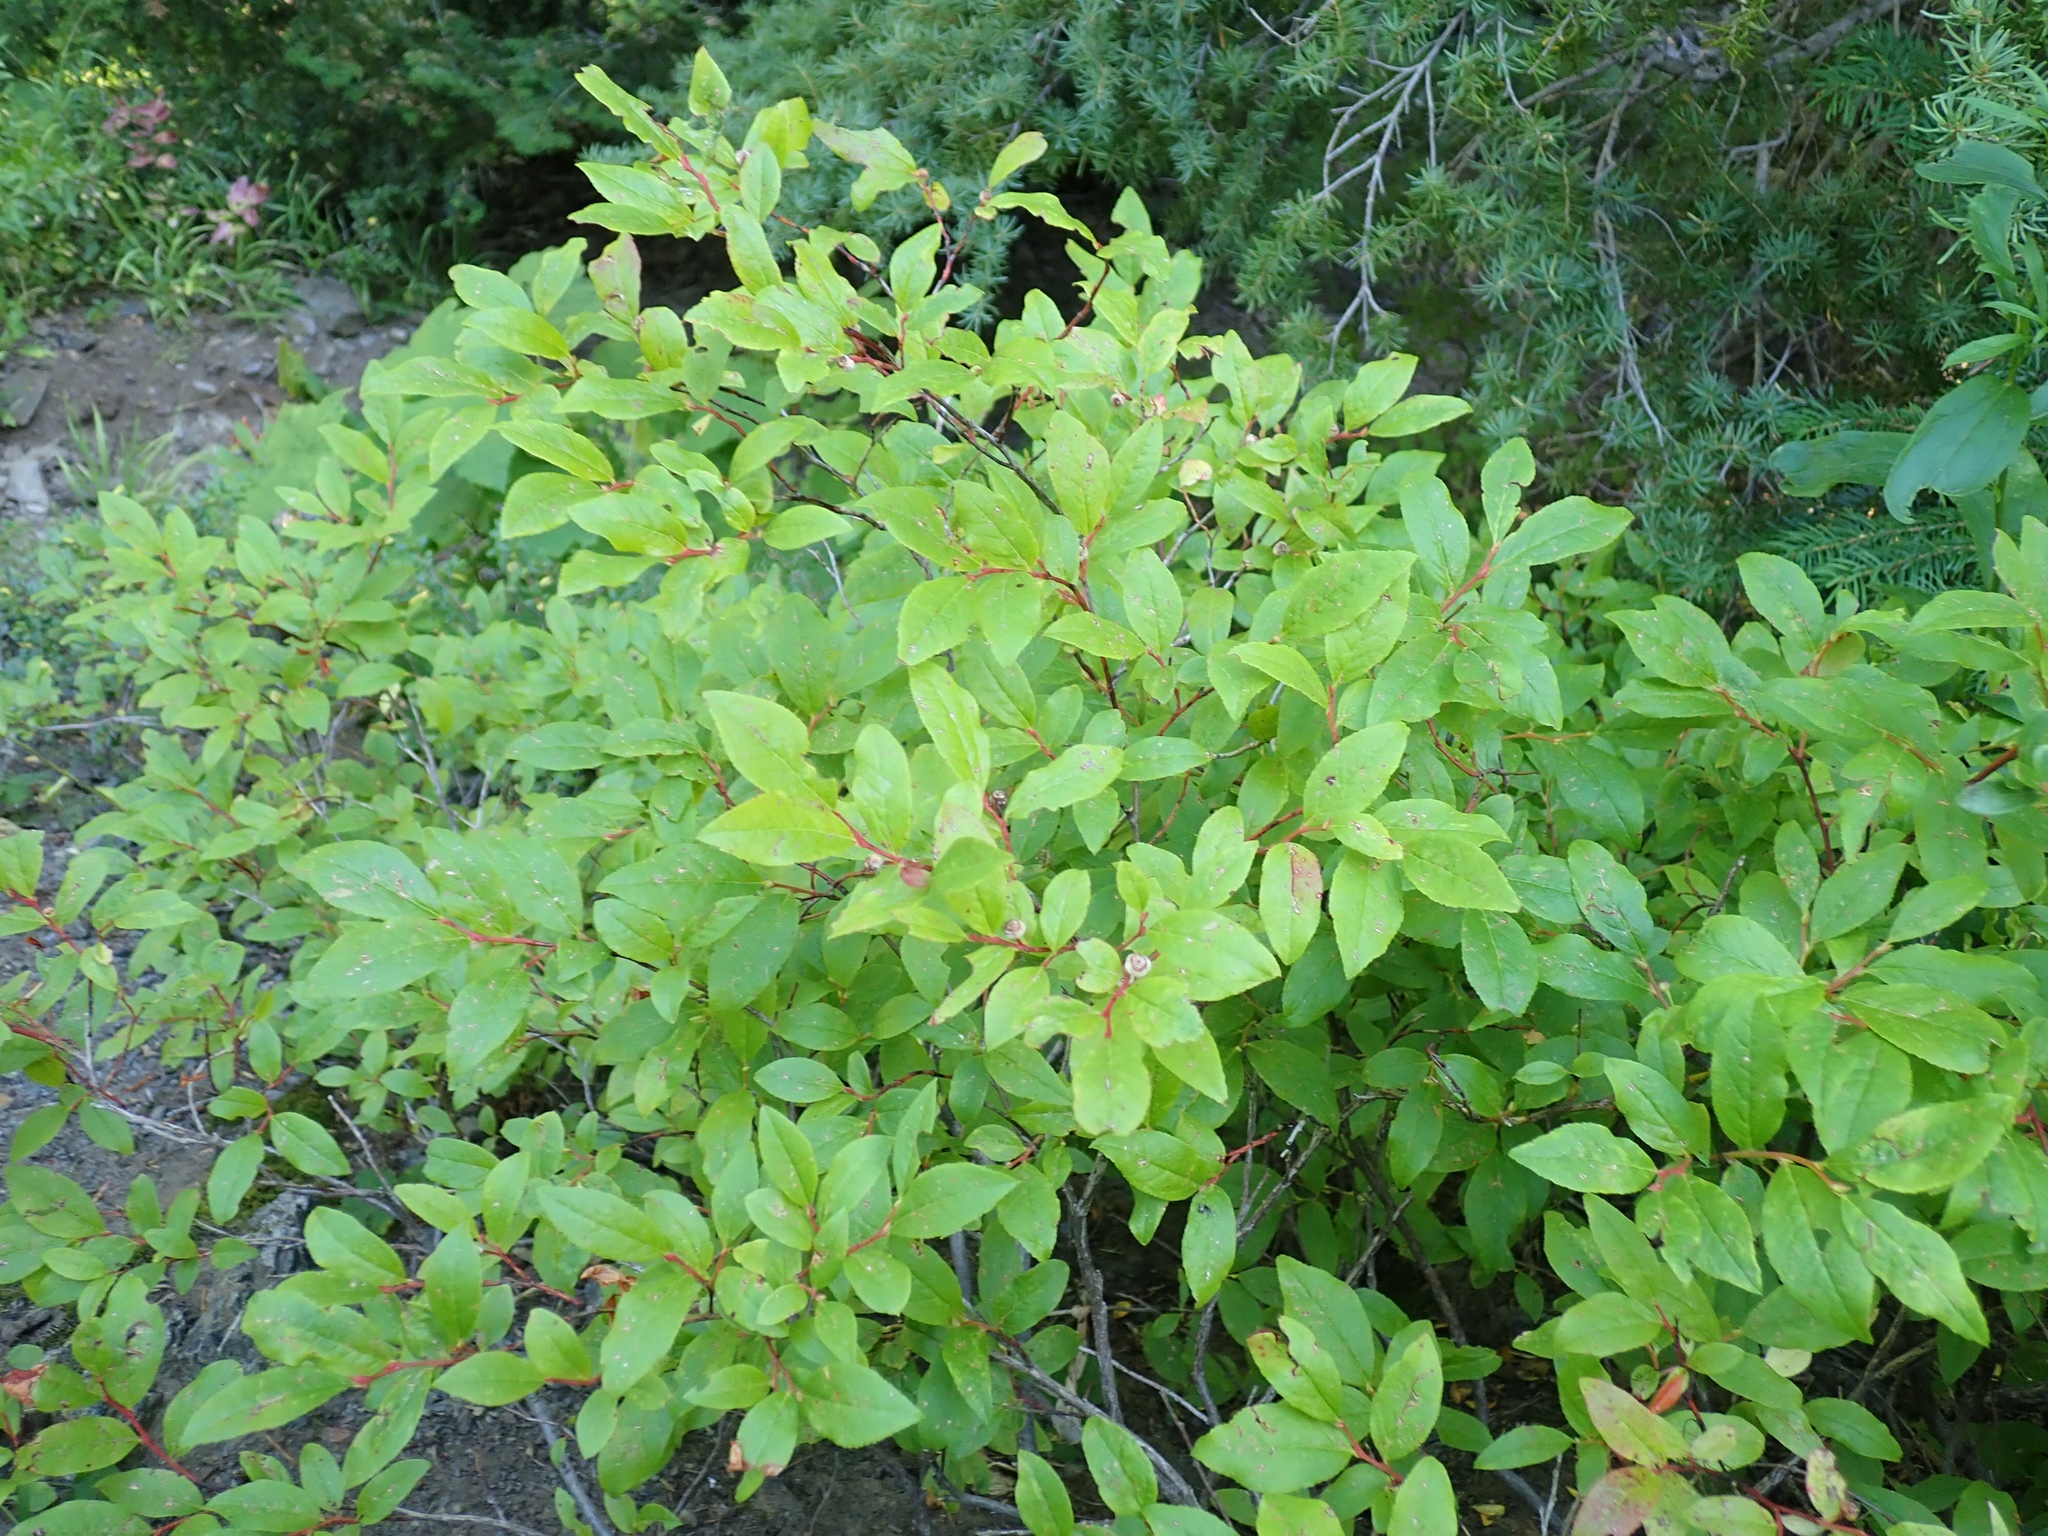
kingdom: Plantae
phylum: Tracheophyta
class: Magnoliopsida
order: Ericales
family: Ericaceae
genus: Vaccinium
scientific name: Vaccinium membranaceum
